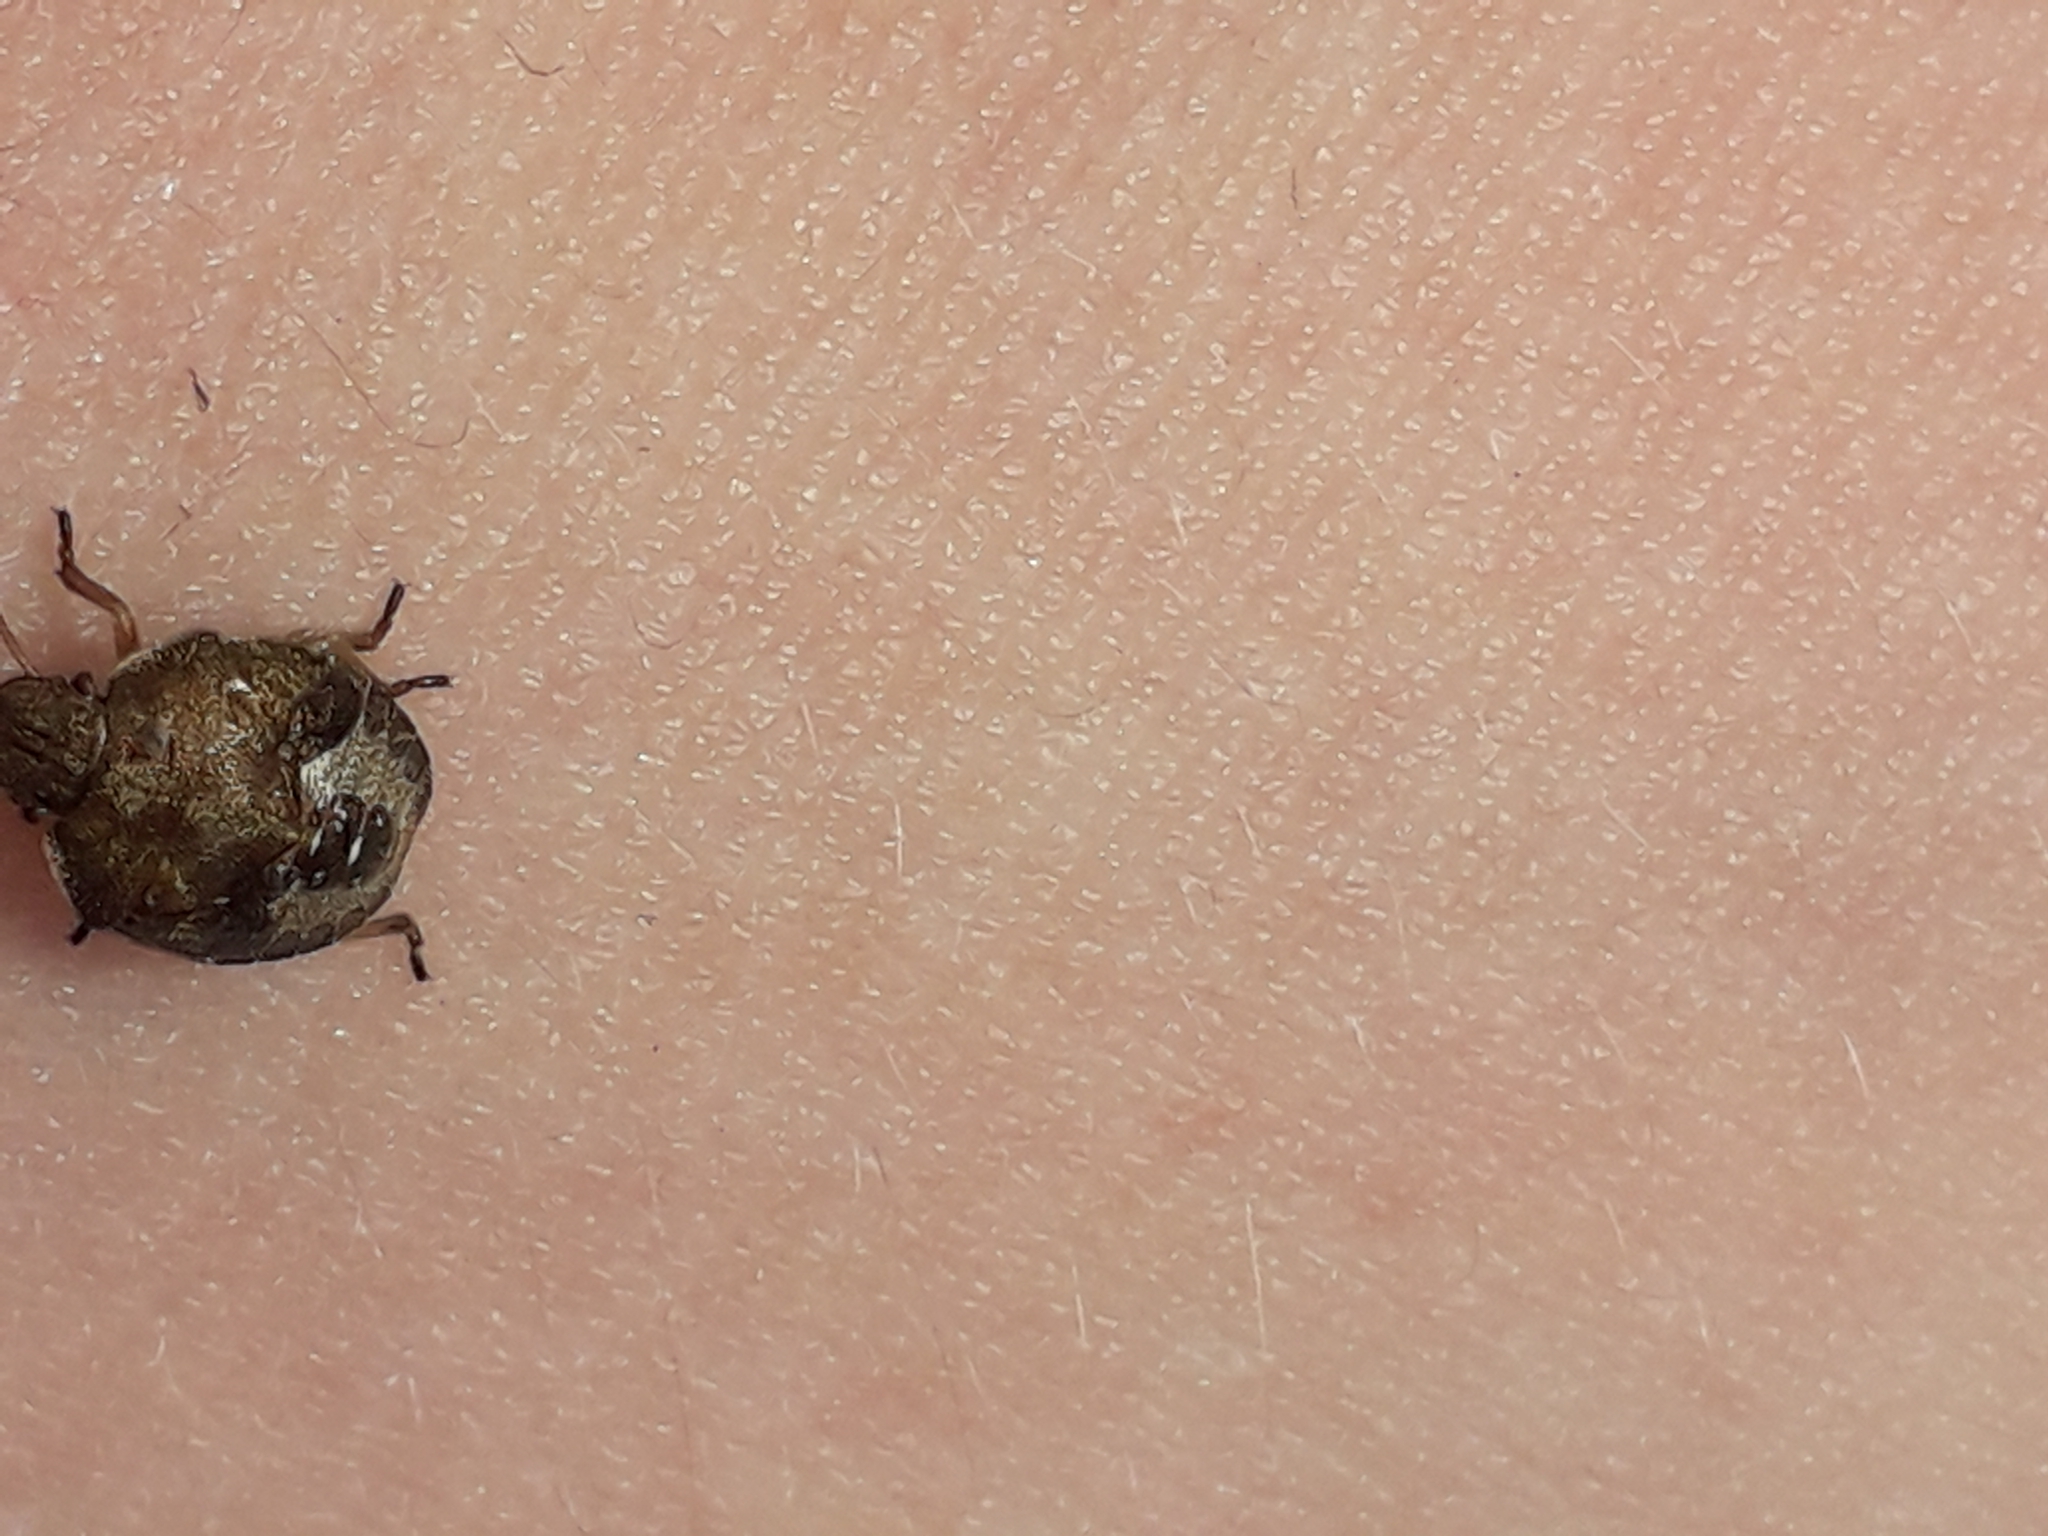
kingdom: Animalia
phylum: Arthropoda
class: Insecta
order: Hemiptera
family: Pentatomidae
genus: Holcostethus
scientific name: Holcostethus strictus
